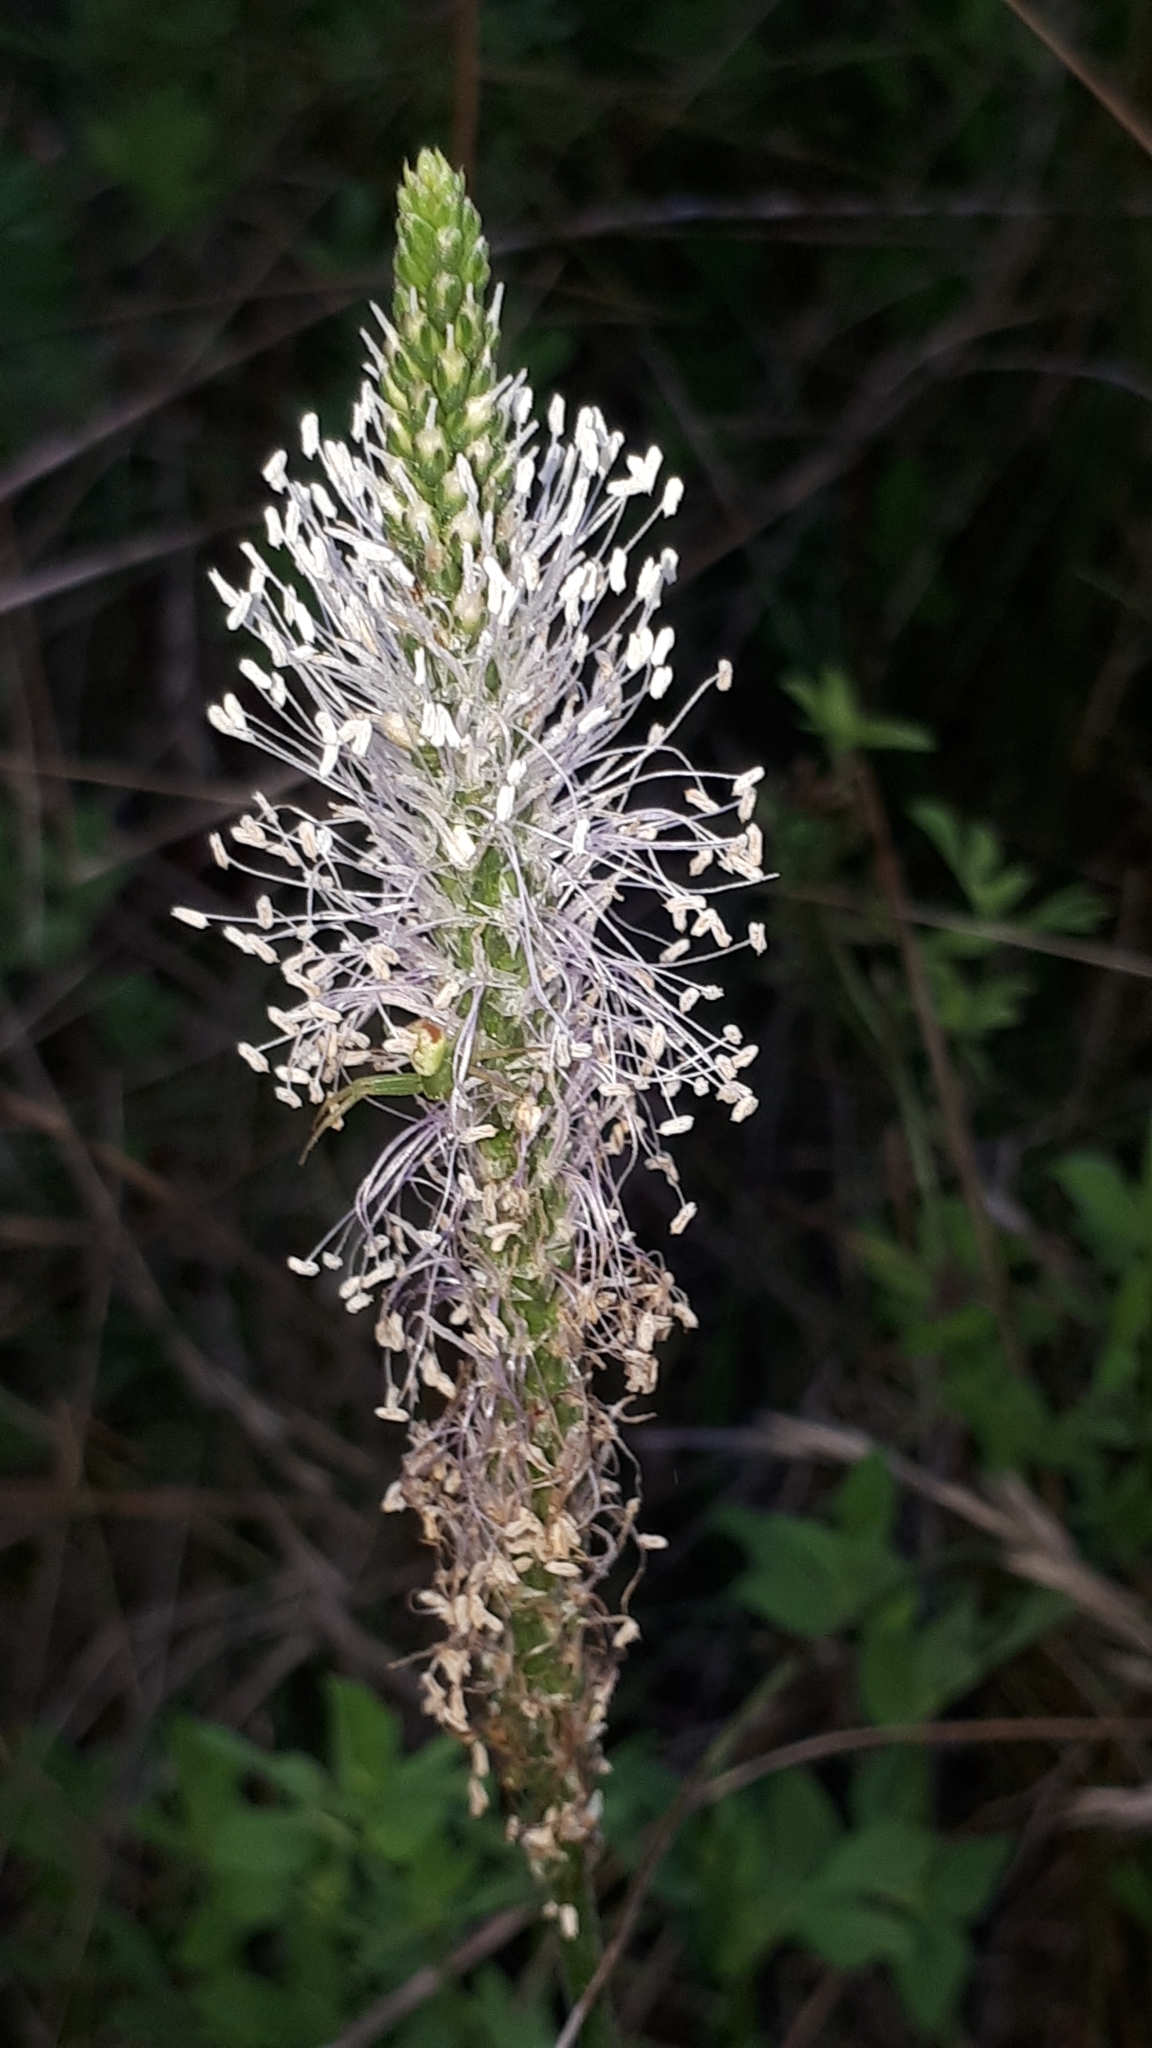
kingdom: Plantae
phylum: Tracheophyta
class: Magnoliopsida
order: Lamiales
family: Plantaginaceae
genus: Plantago
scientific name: Plantago media
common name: Hoary plantain
